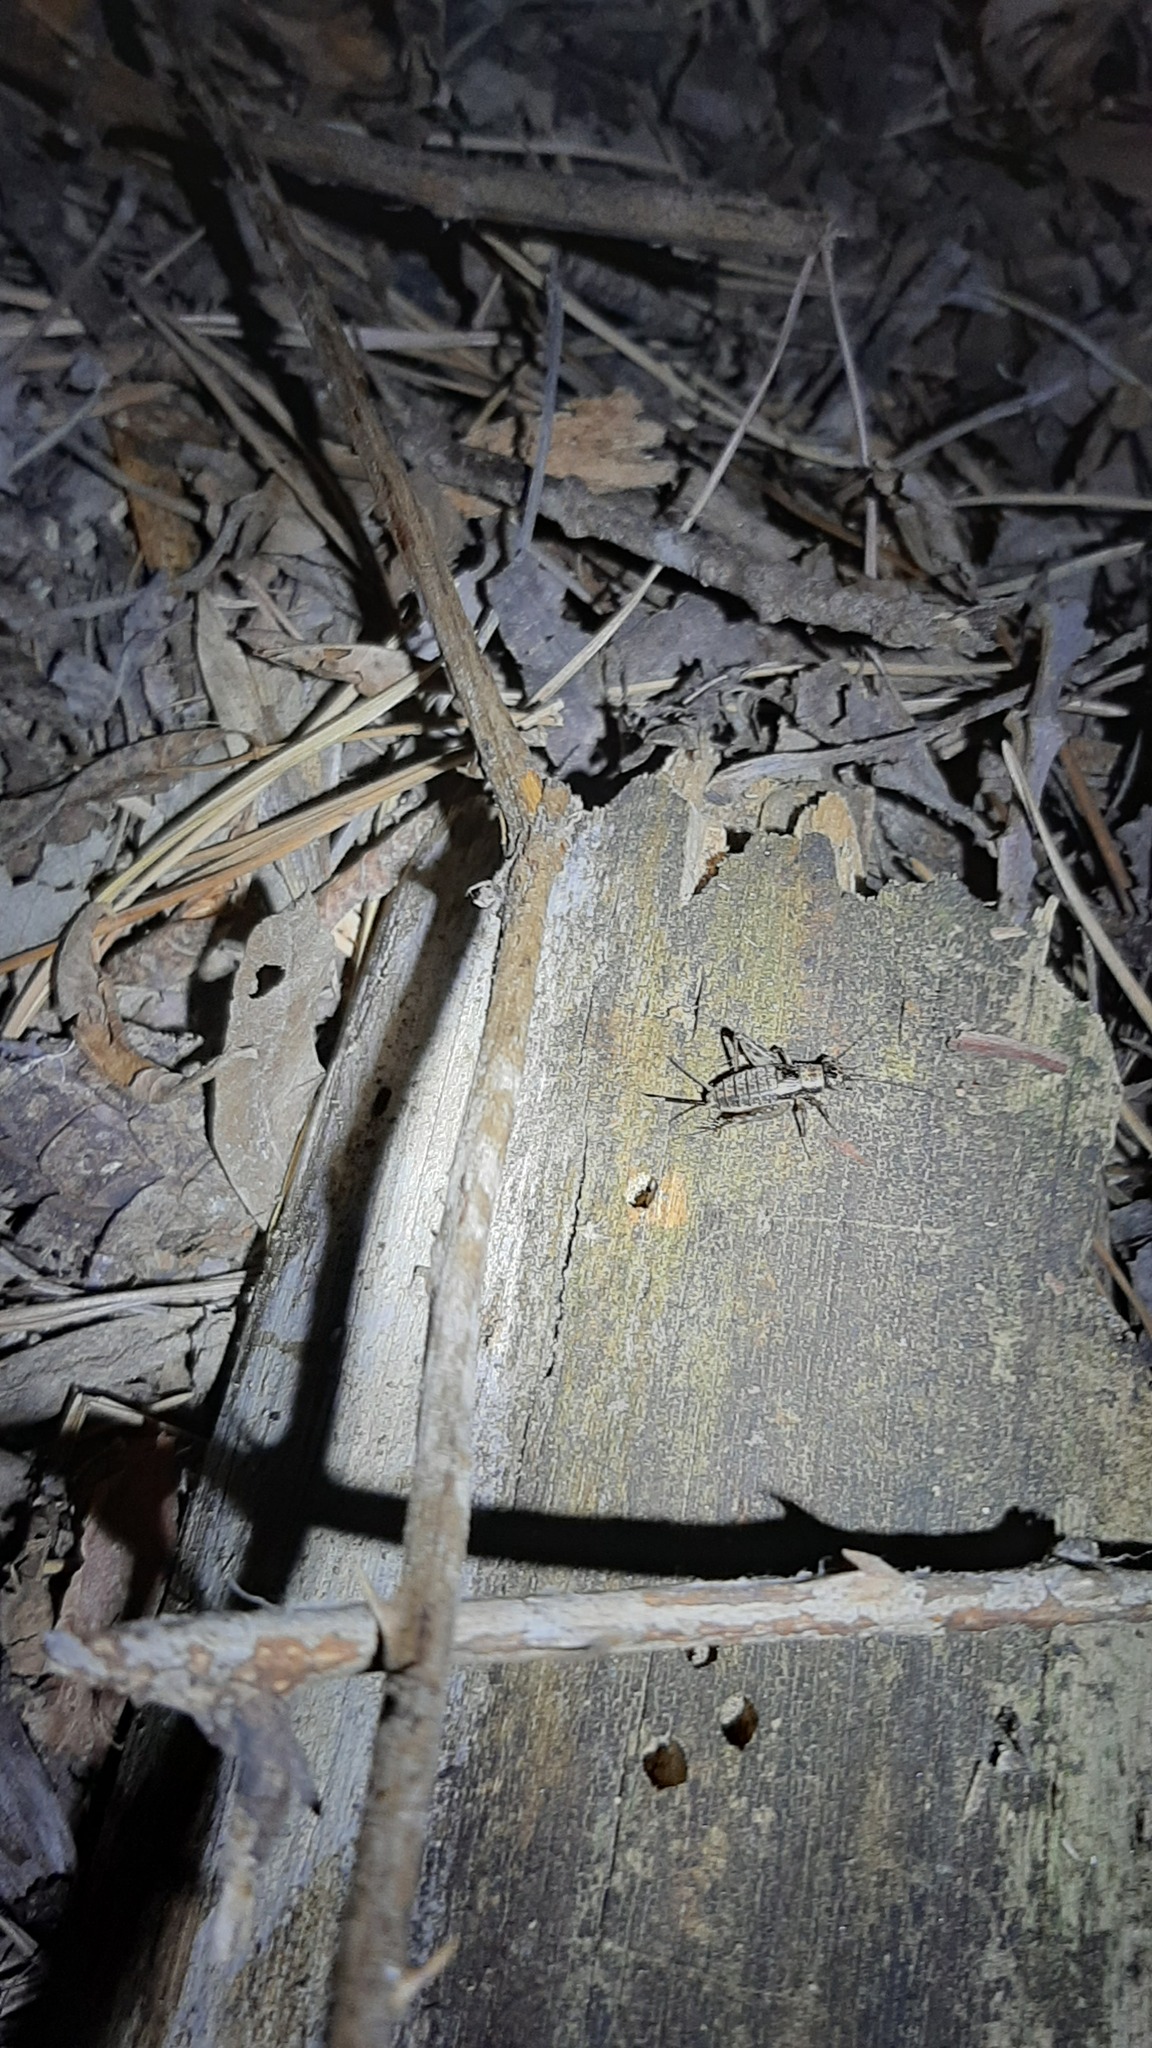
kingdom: Animalia
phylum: Arthropoda
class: Insecta
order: Orthoptera
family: Trigonidiidae
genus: Nemobius
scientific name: Nemobius sylvestris
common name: Wood-cricket
